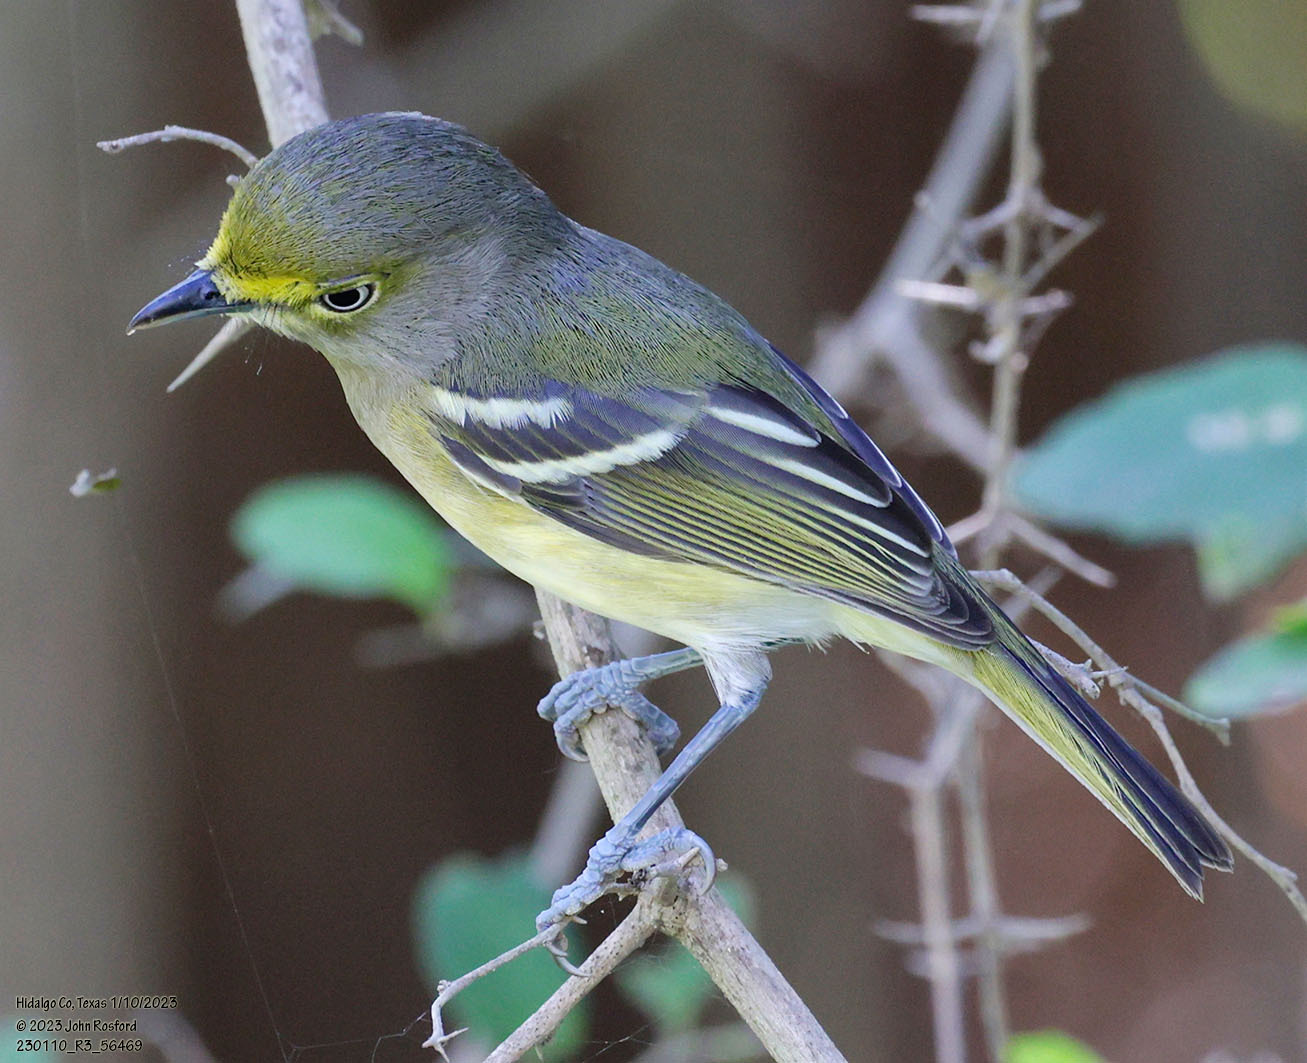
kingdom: Animalia
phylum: Chordata
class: Aves
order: Passeriformes
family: Vireonidae
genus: Vireo
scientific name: Vireo griseus
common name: White-eyed vireo
